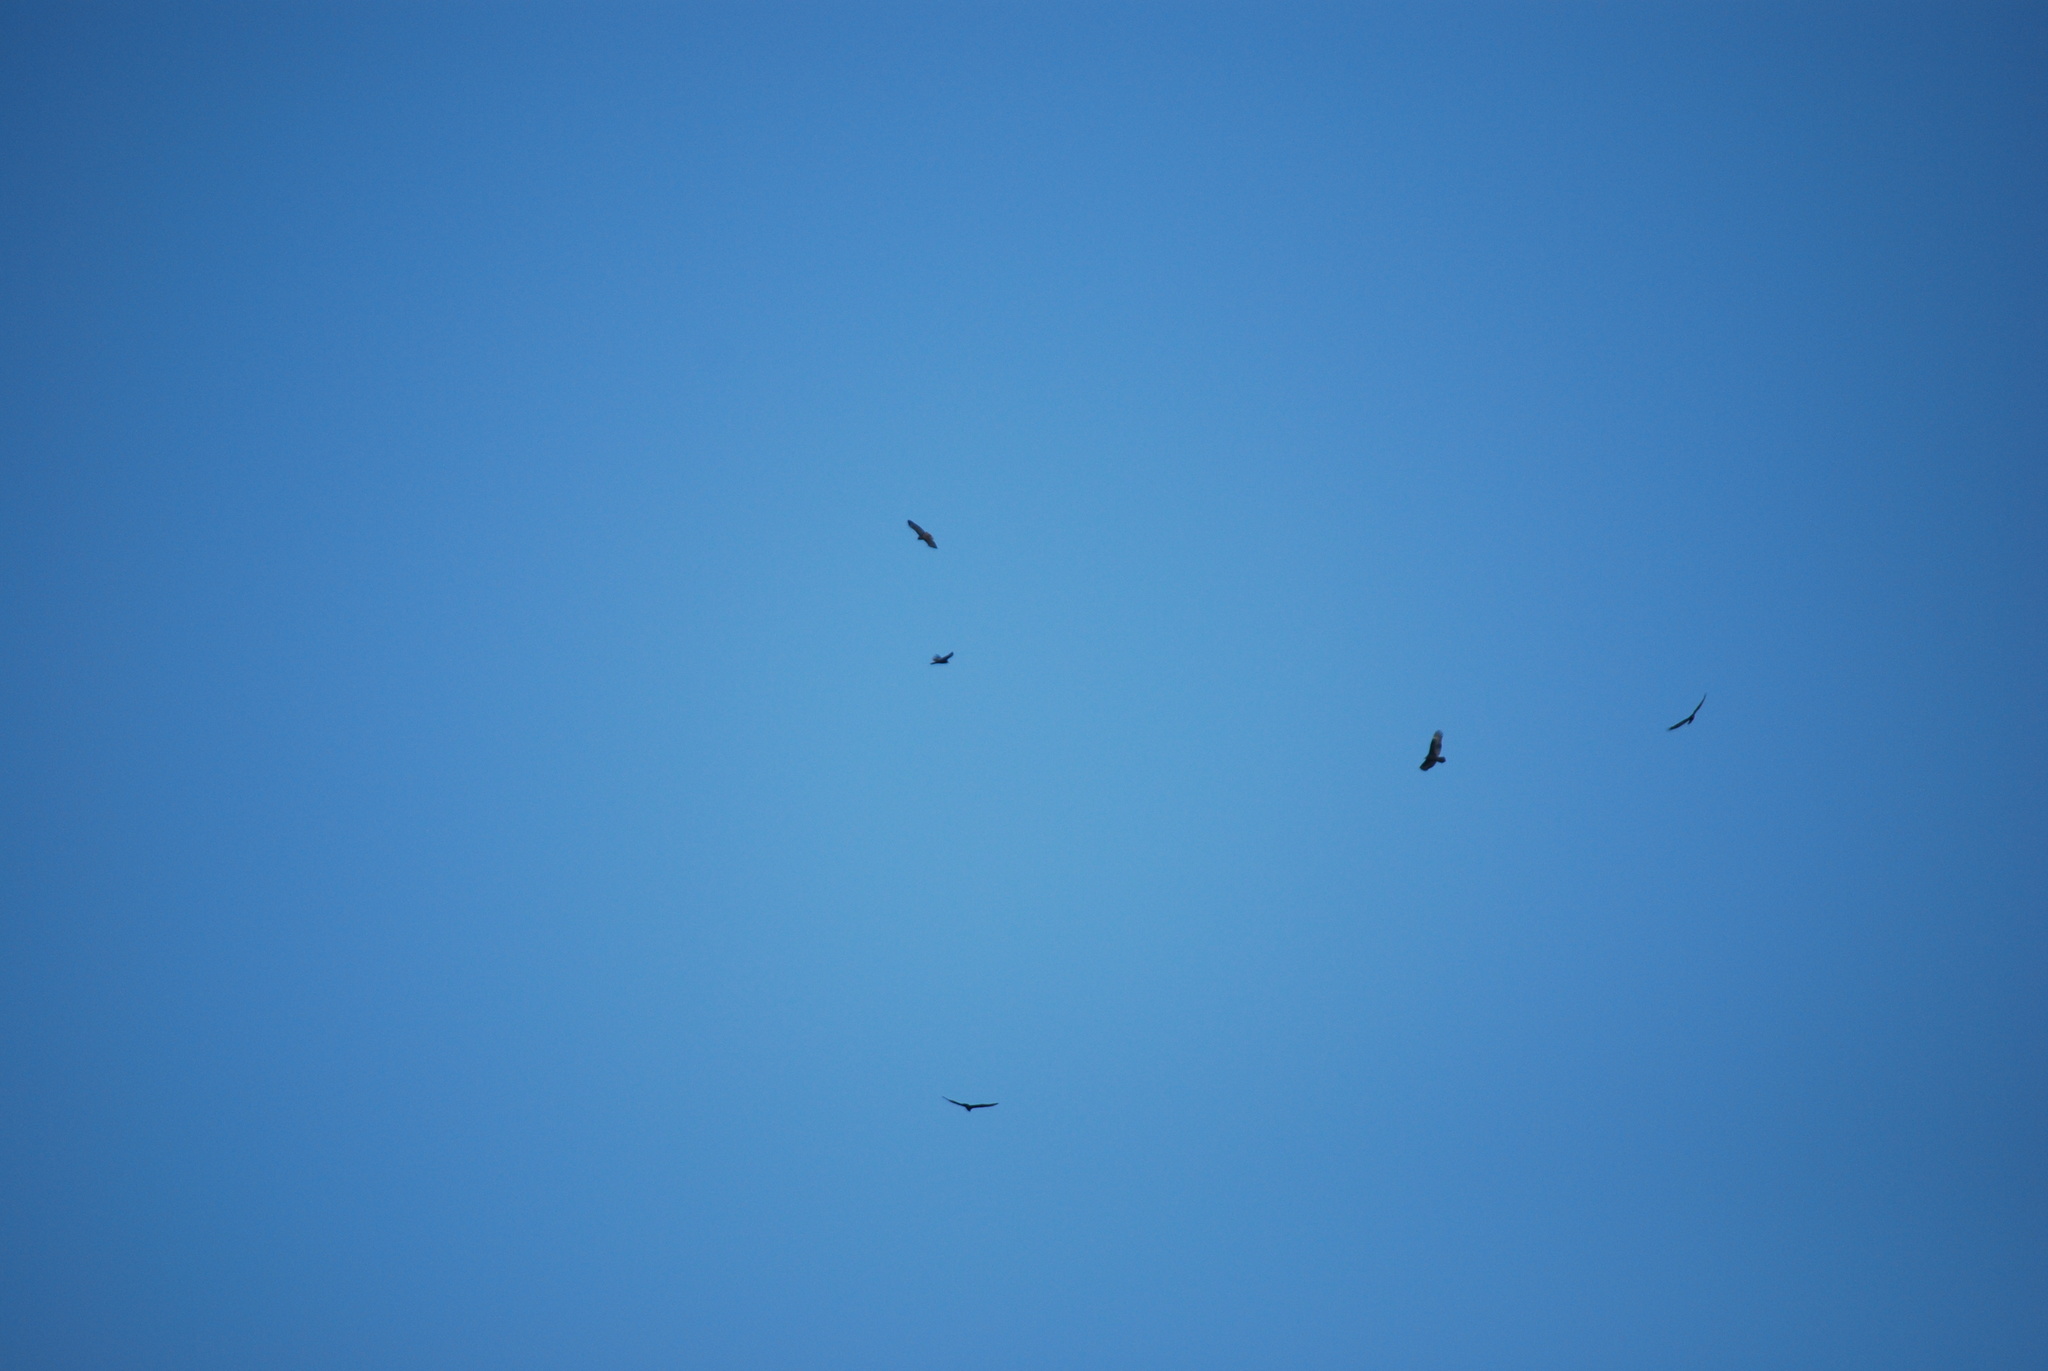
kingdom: Animalia
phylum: Chordata
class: Aves
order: Accipitriformes
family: Cathartidae
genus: Cathartes
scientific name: Cathartes aura
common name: Turkey vulture
